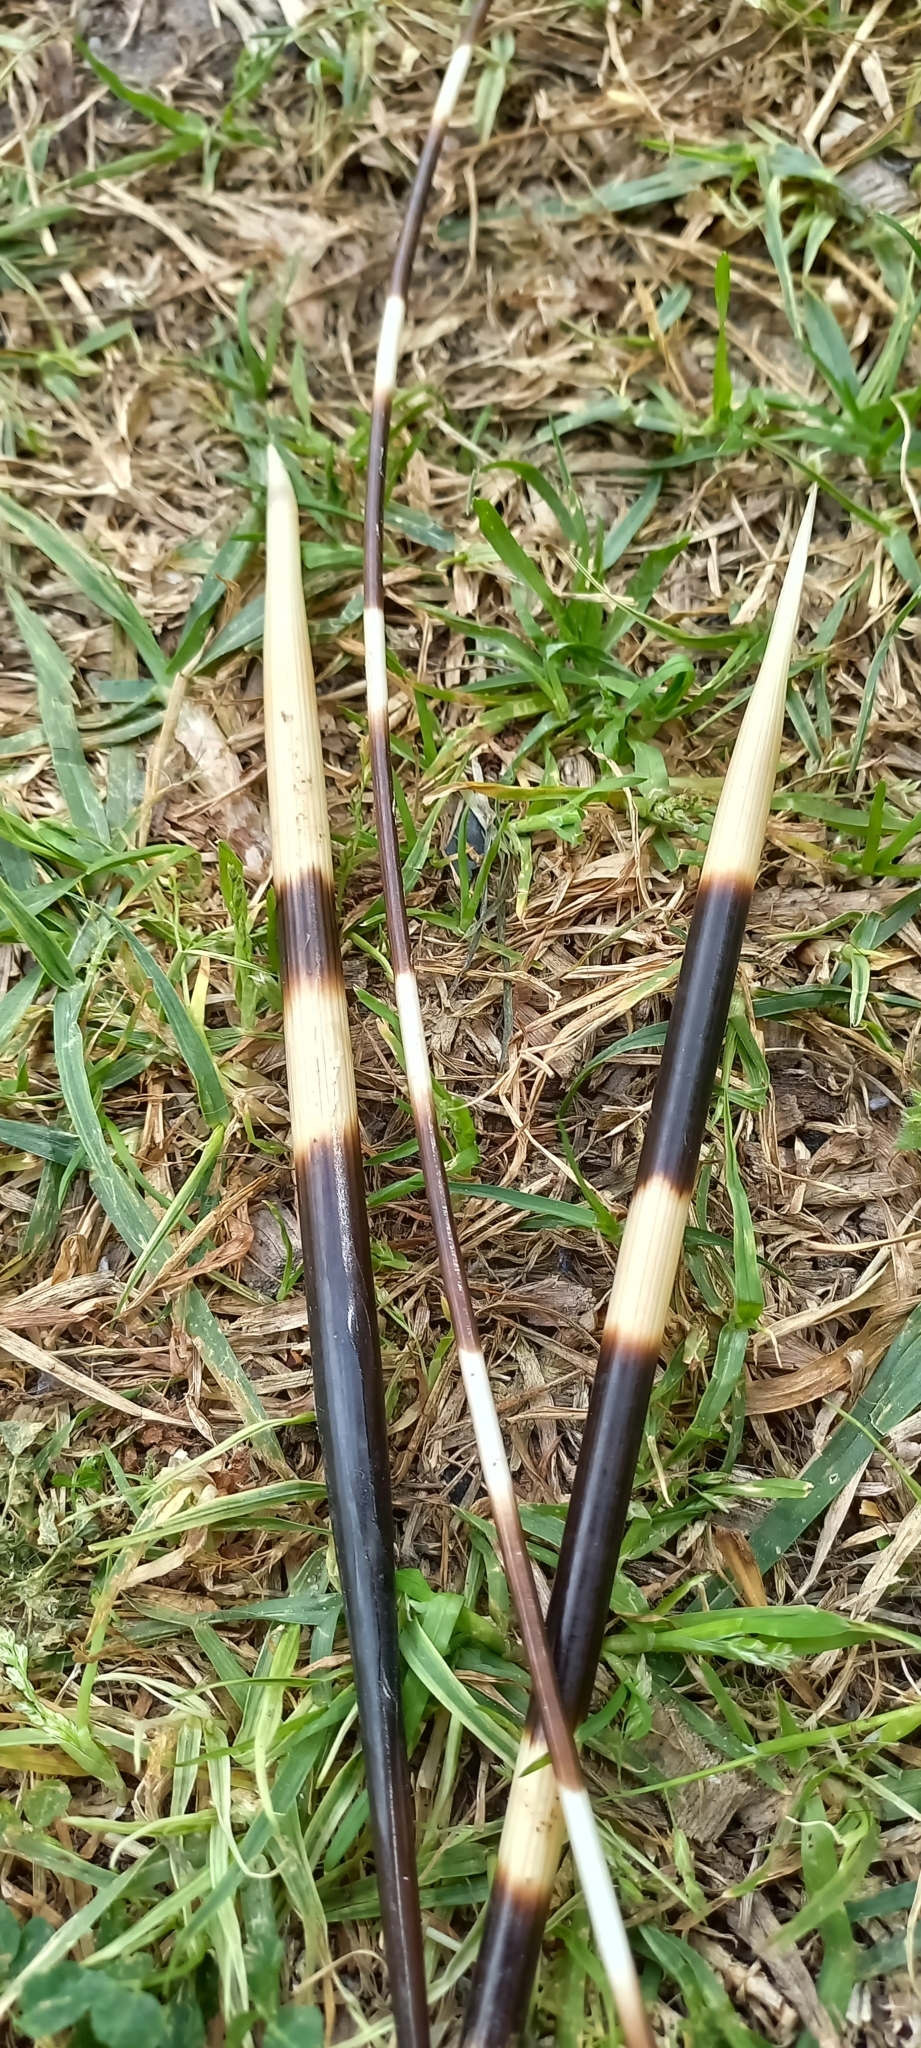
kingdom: Animalia
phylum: Chordata
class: Mammalia
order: Rodentia
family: Hystricidae
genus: Hystrix
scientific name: Hystrix africaeaustralis
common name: Cape porcupine
